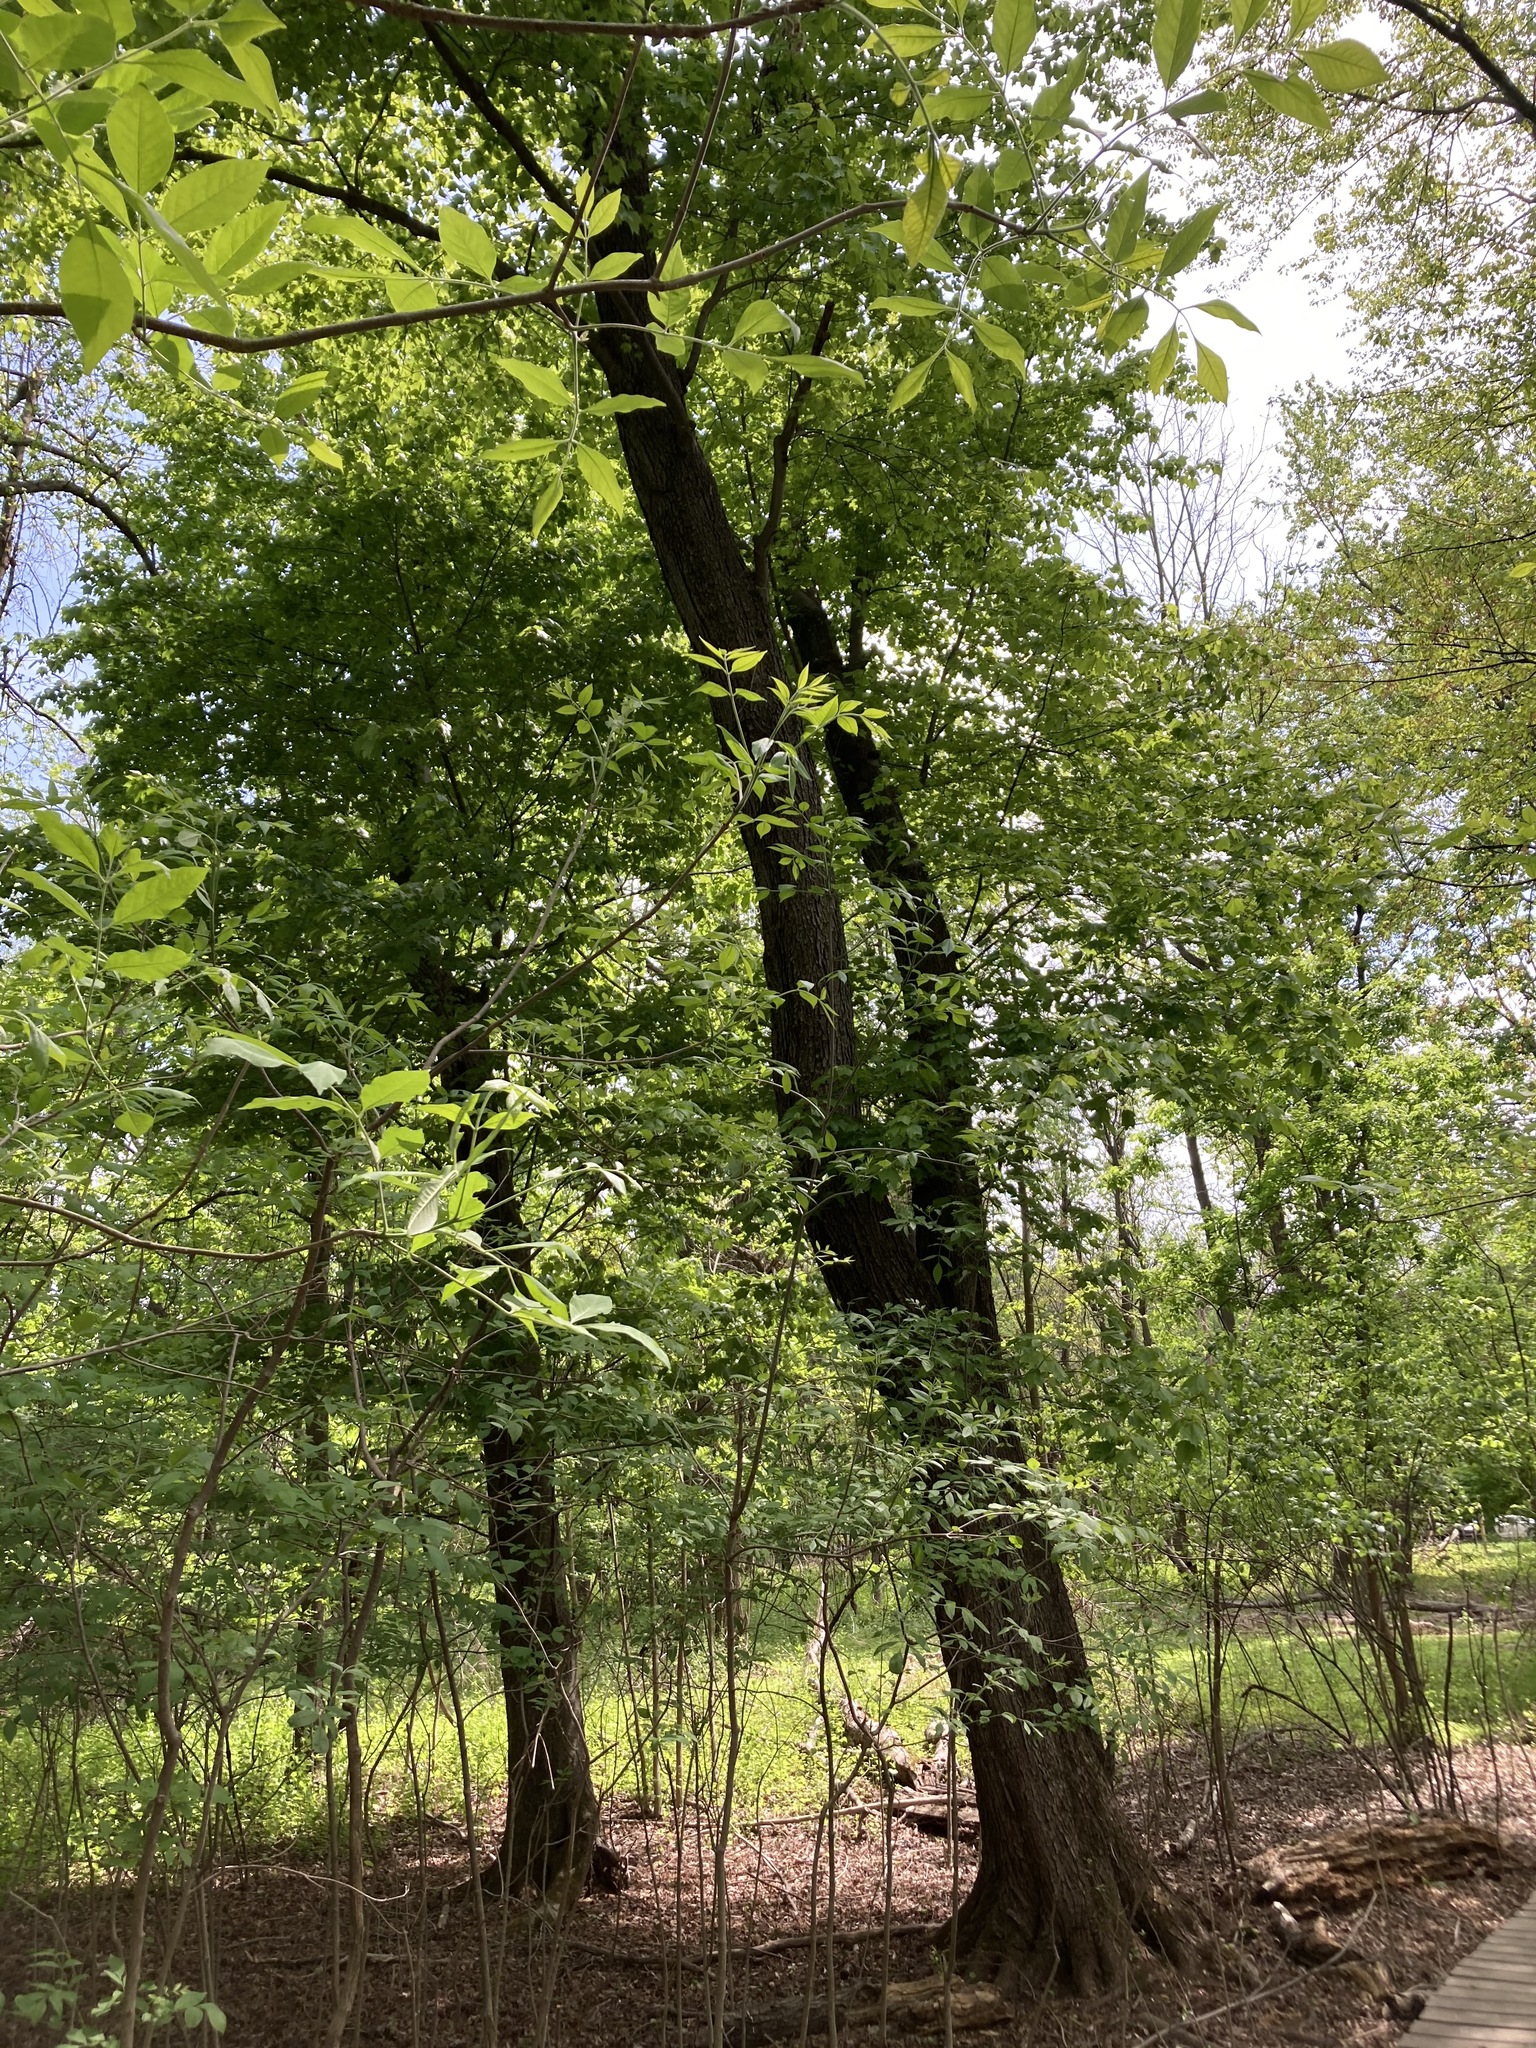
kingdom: Plantae
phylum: Tracheophyta
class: Magnoliopsida
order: Sapindales
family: Sapindaceae
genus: Acer
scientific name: Acer rubrum
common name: Red maple
